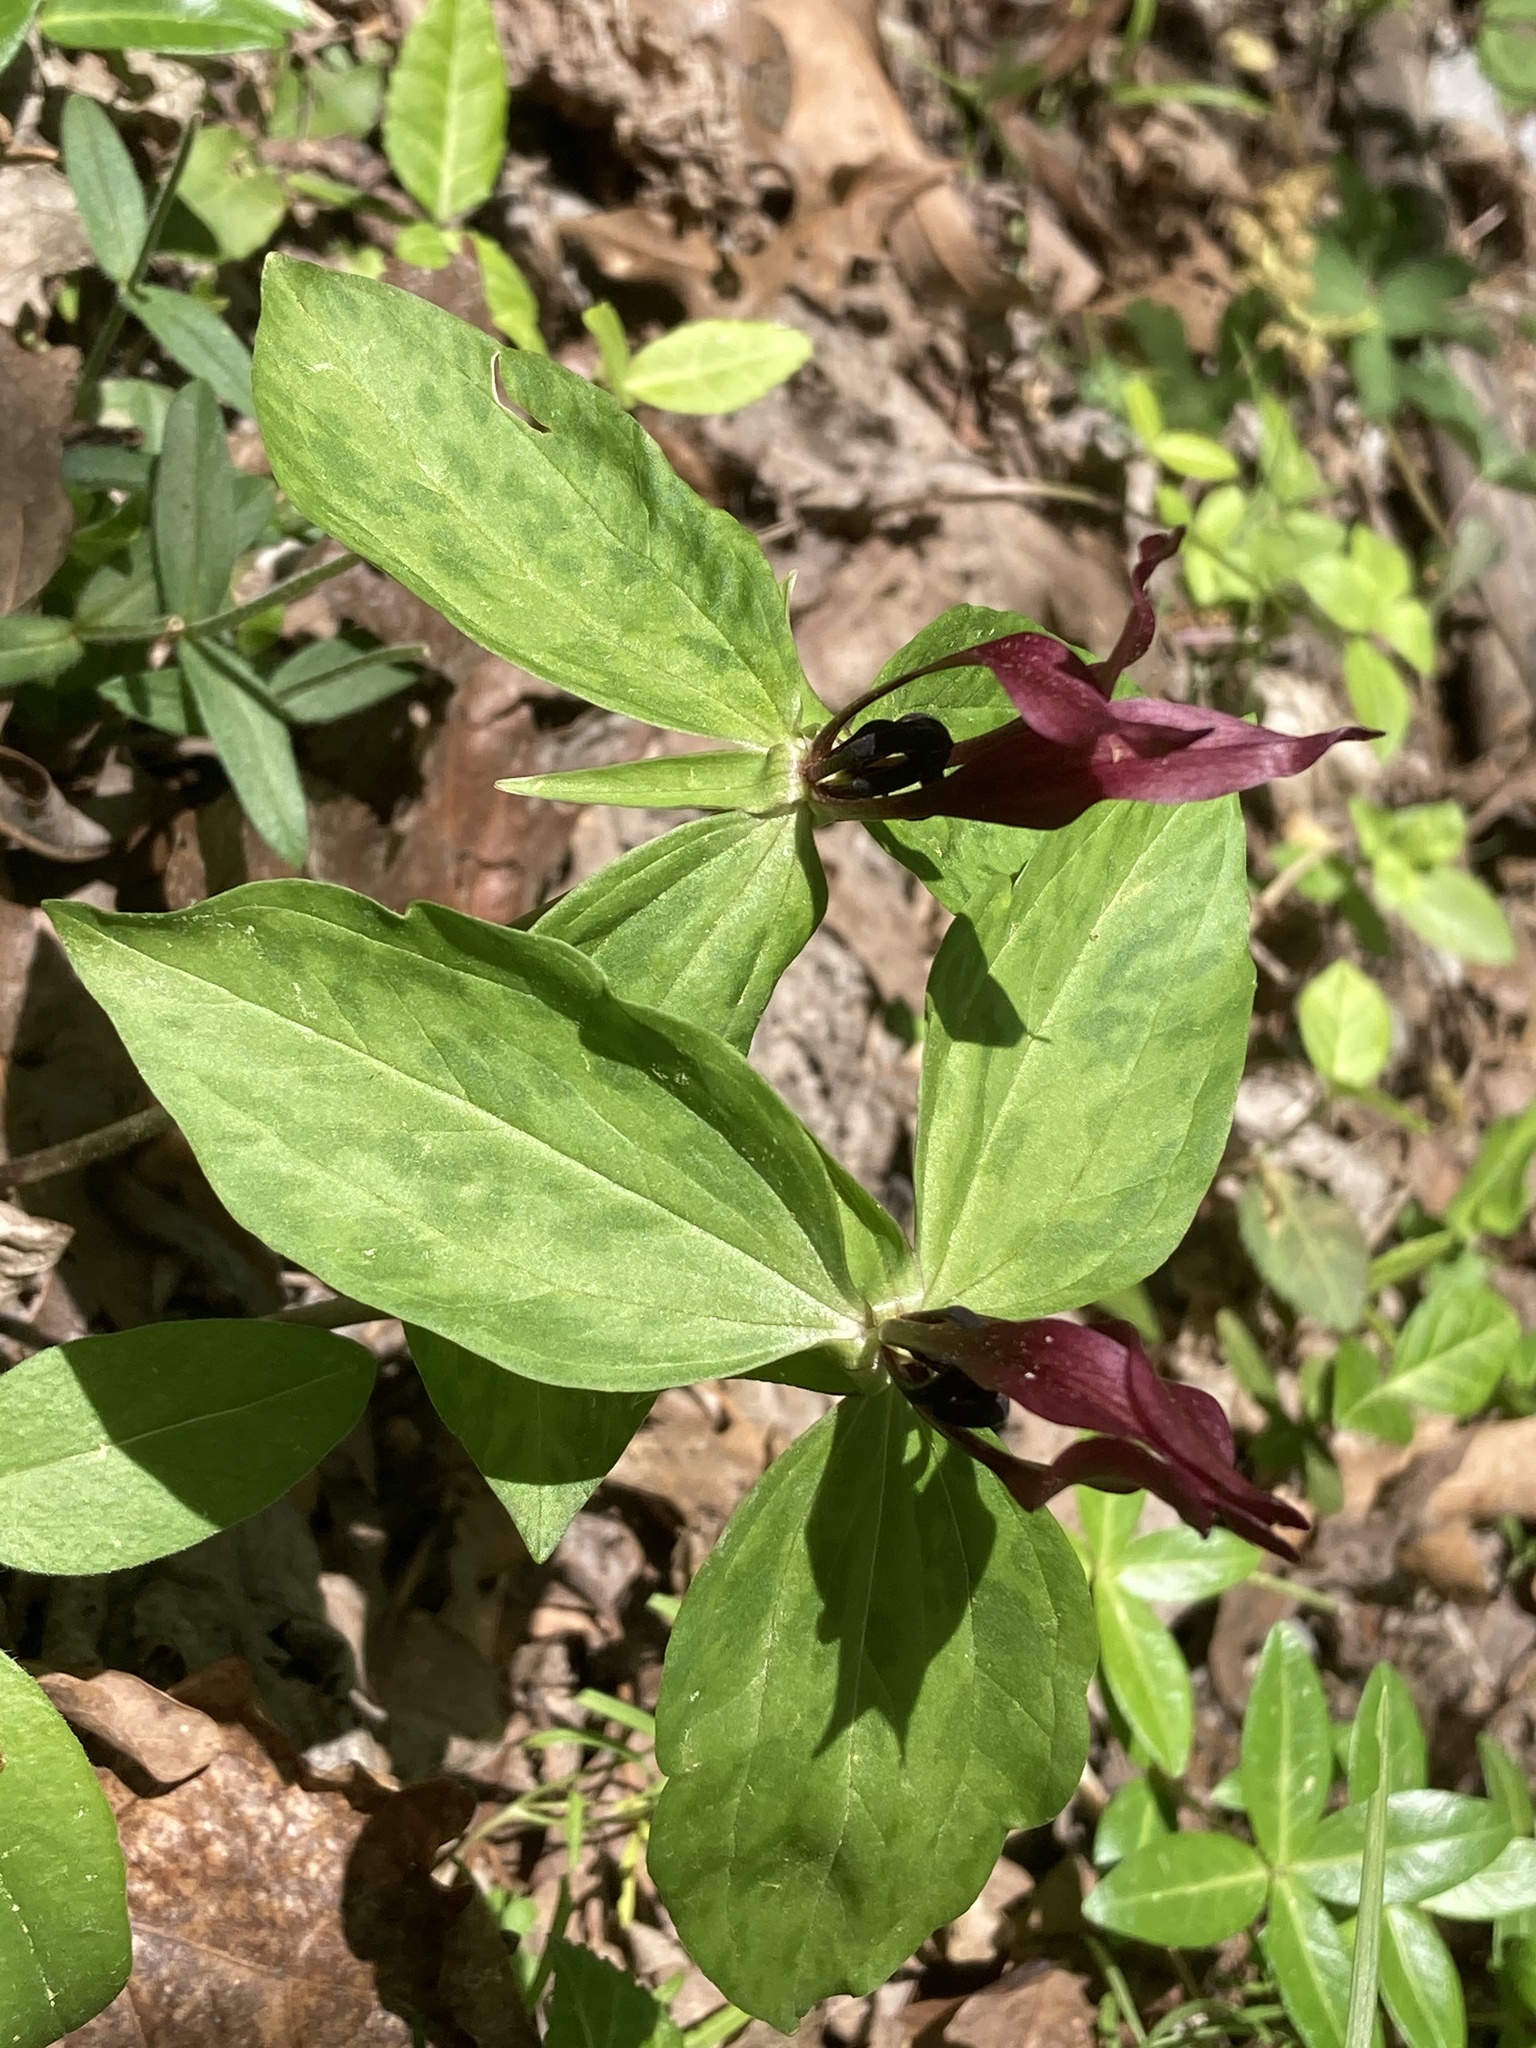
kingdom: Plantae
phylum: Tracheophyta
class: Liliopsida
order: Liliales
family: Melanthiaceae
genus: Trillium
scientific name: Trillium lancifolium
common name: Lance-leaved trillium
